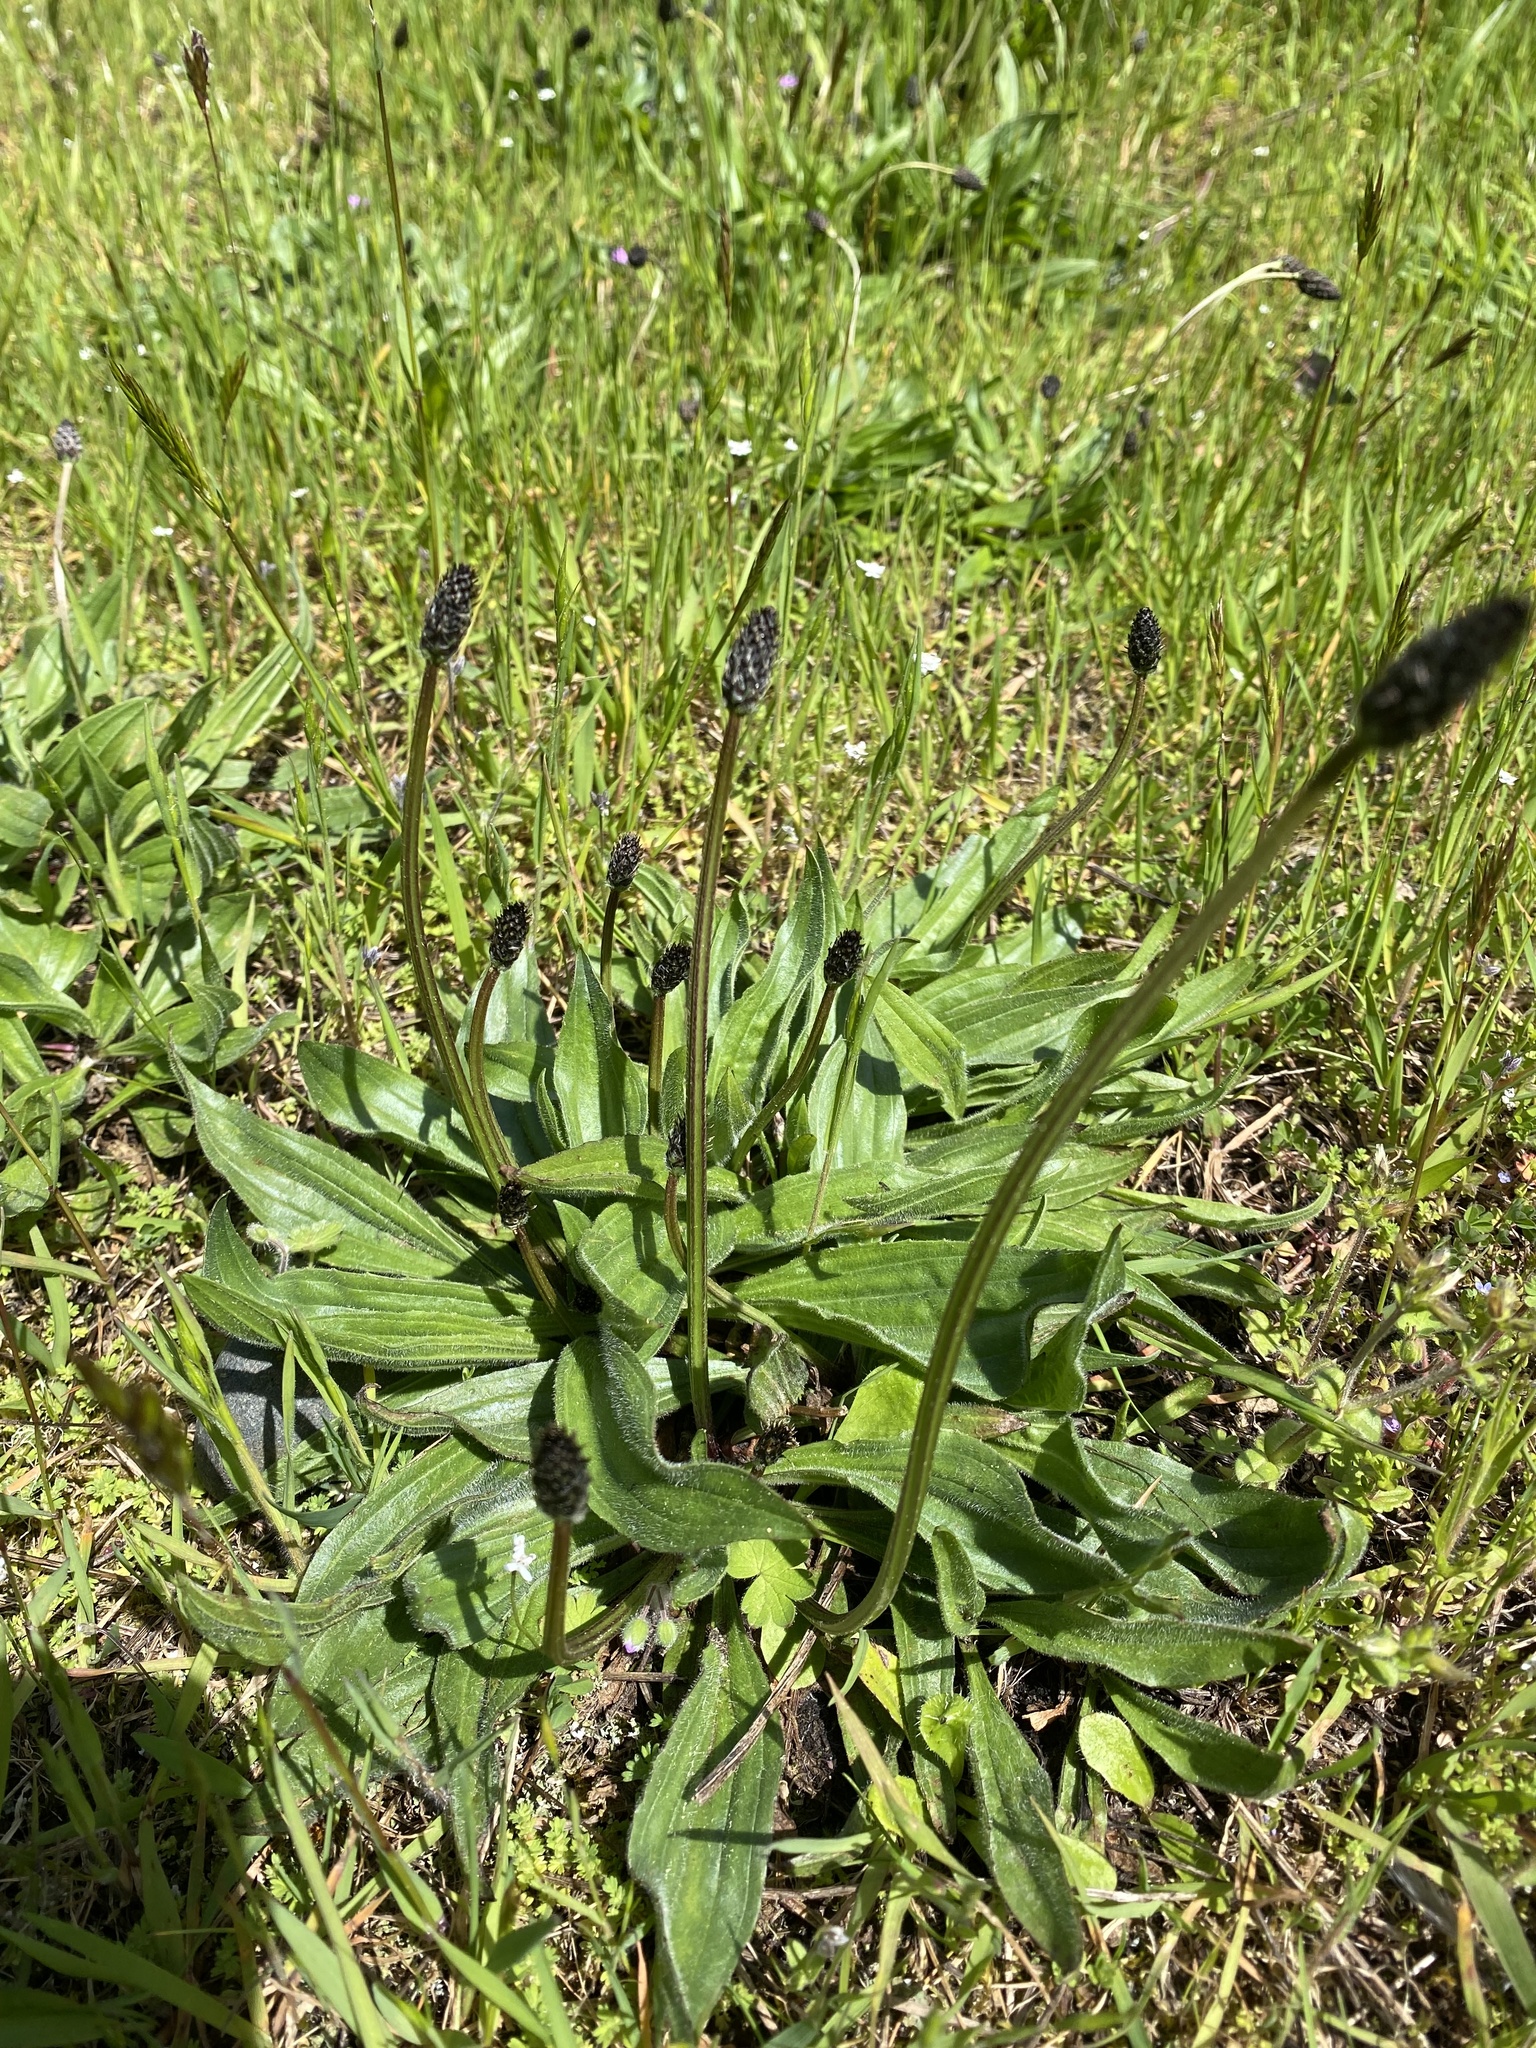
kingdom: Plantae
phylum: Tracheophyta
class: Magnoliopsida
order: Lamiales
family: Plantaginaceae
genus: Plantago
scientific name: Plantago lanceolata
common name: Ribwort plantain
